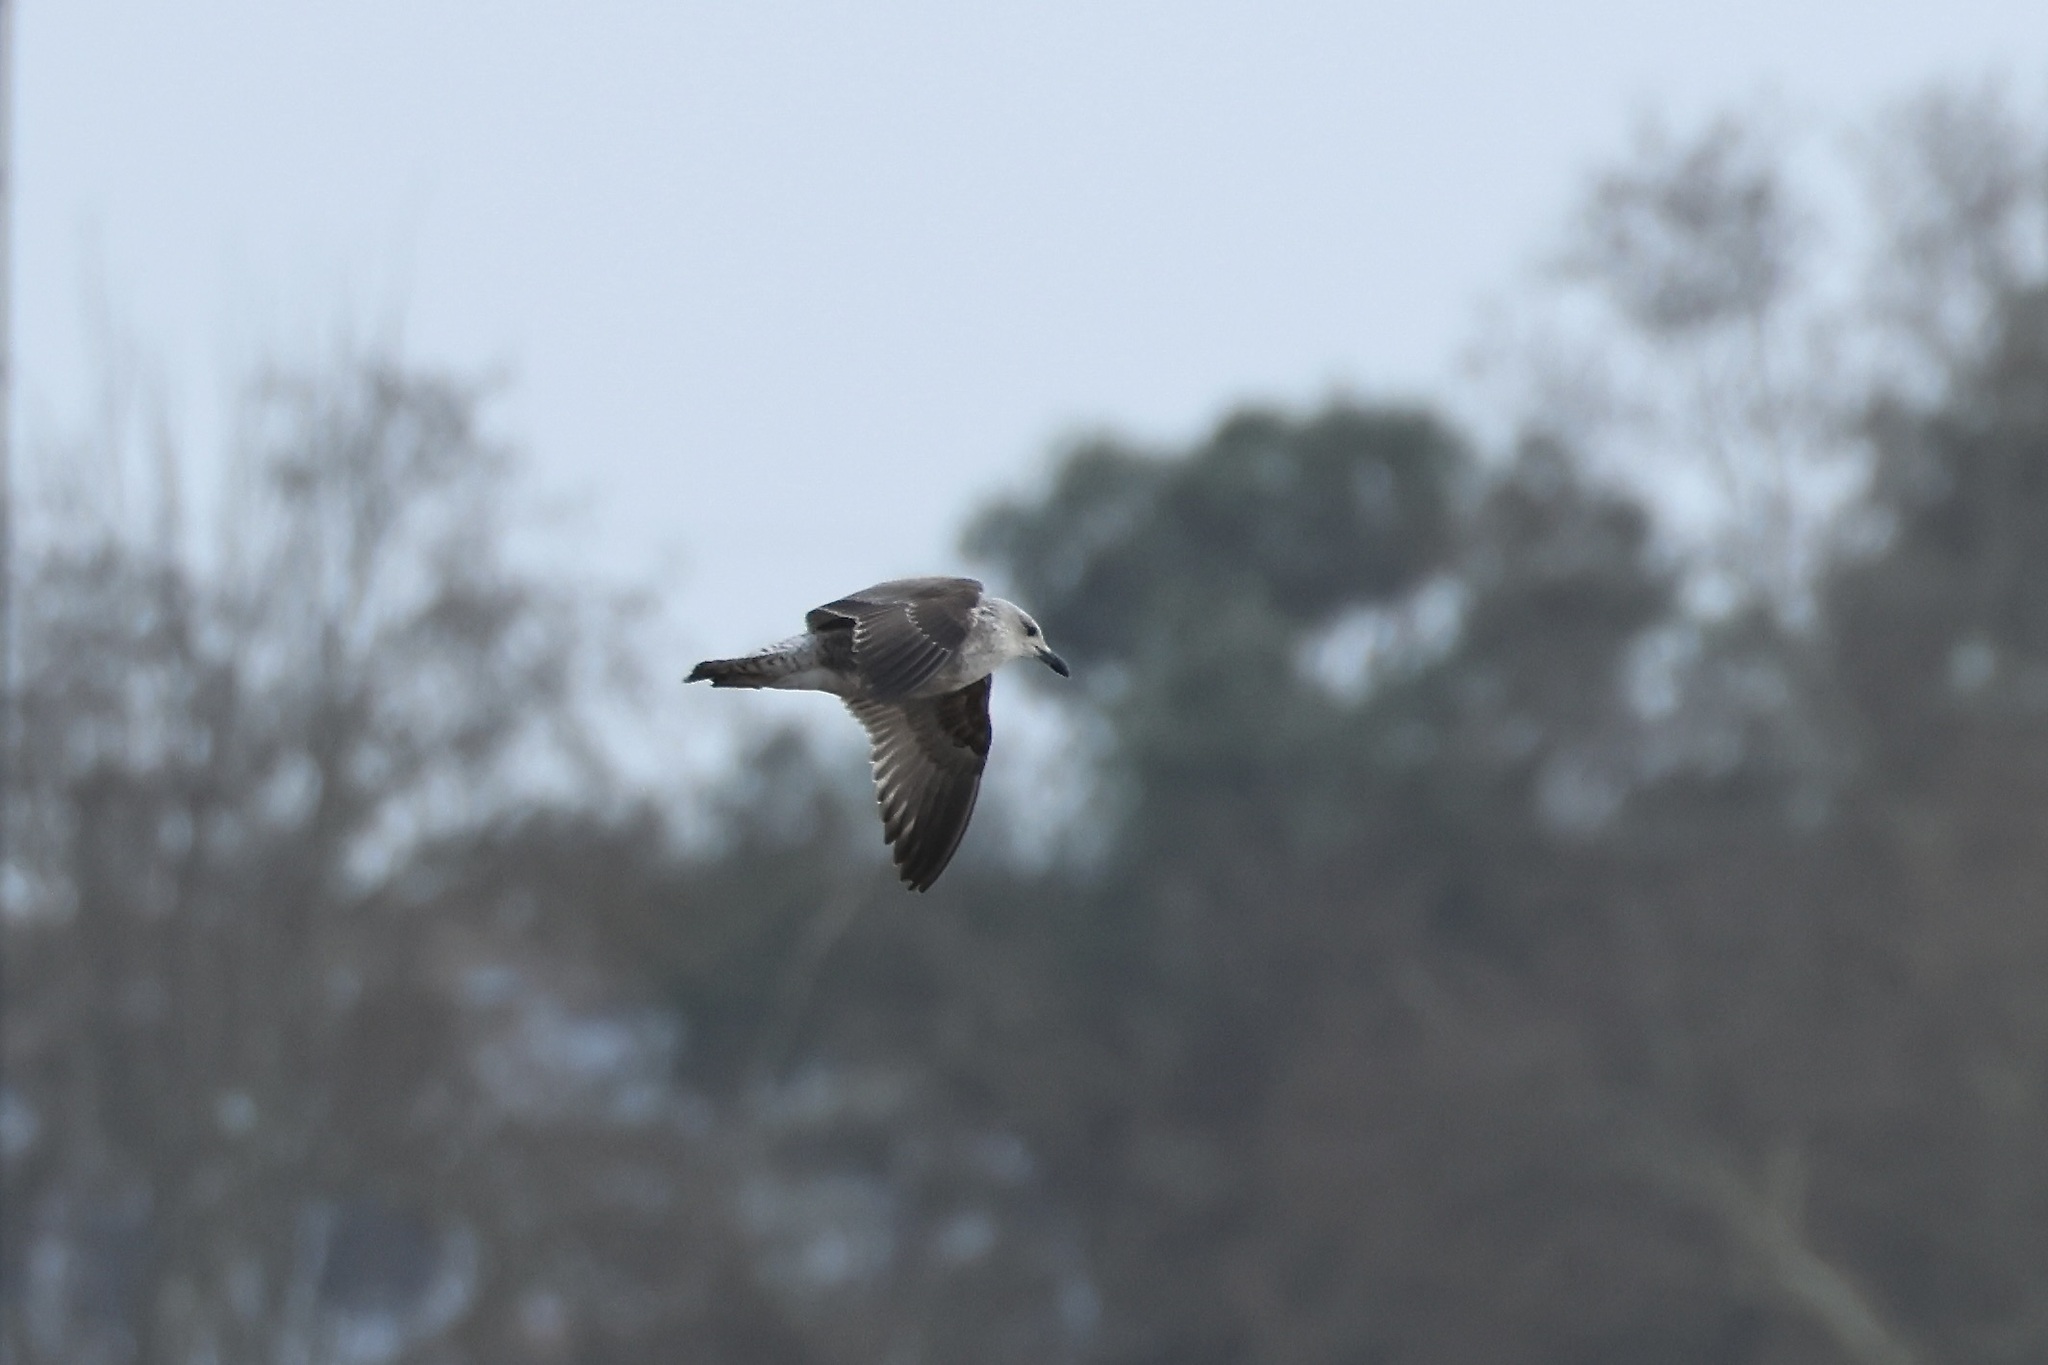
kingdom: Animalia
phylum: Chordata
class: Aves
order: Charadriiformes
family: Laridae
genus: Larus
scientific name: Larus fuscus
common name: Lesser black-backed gull
